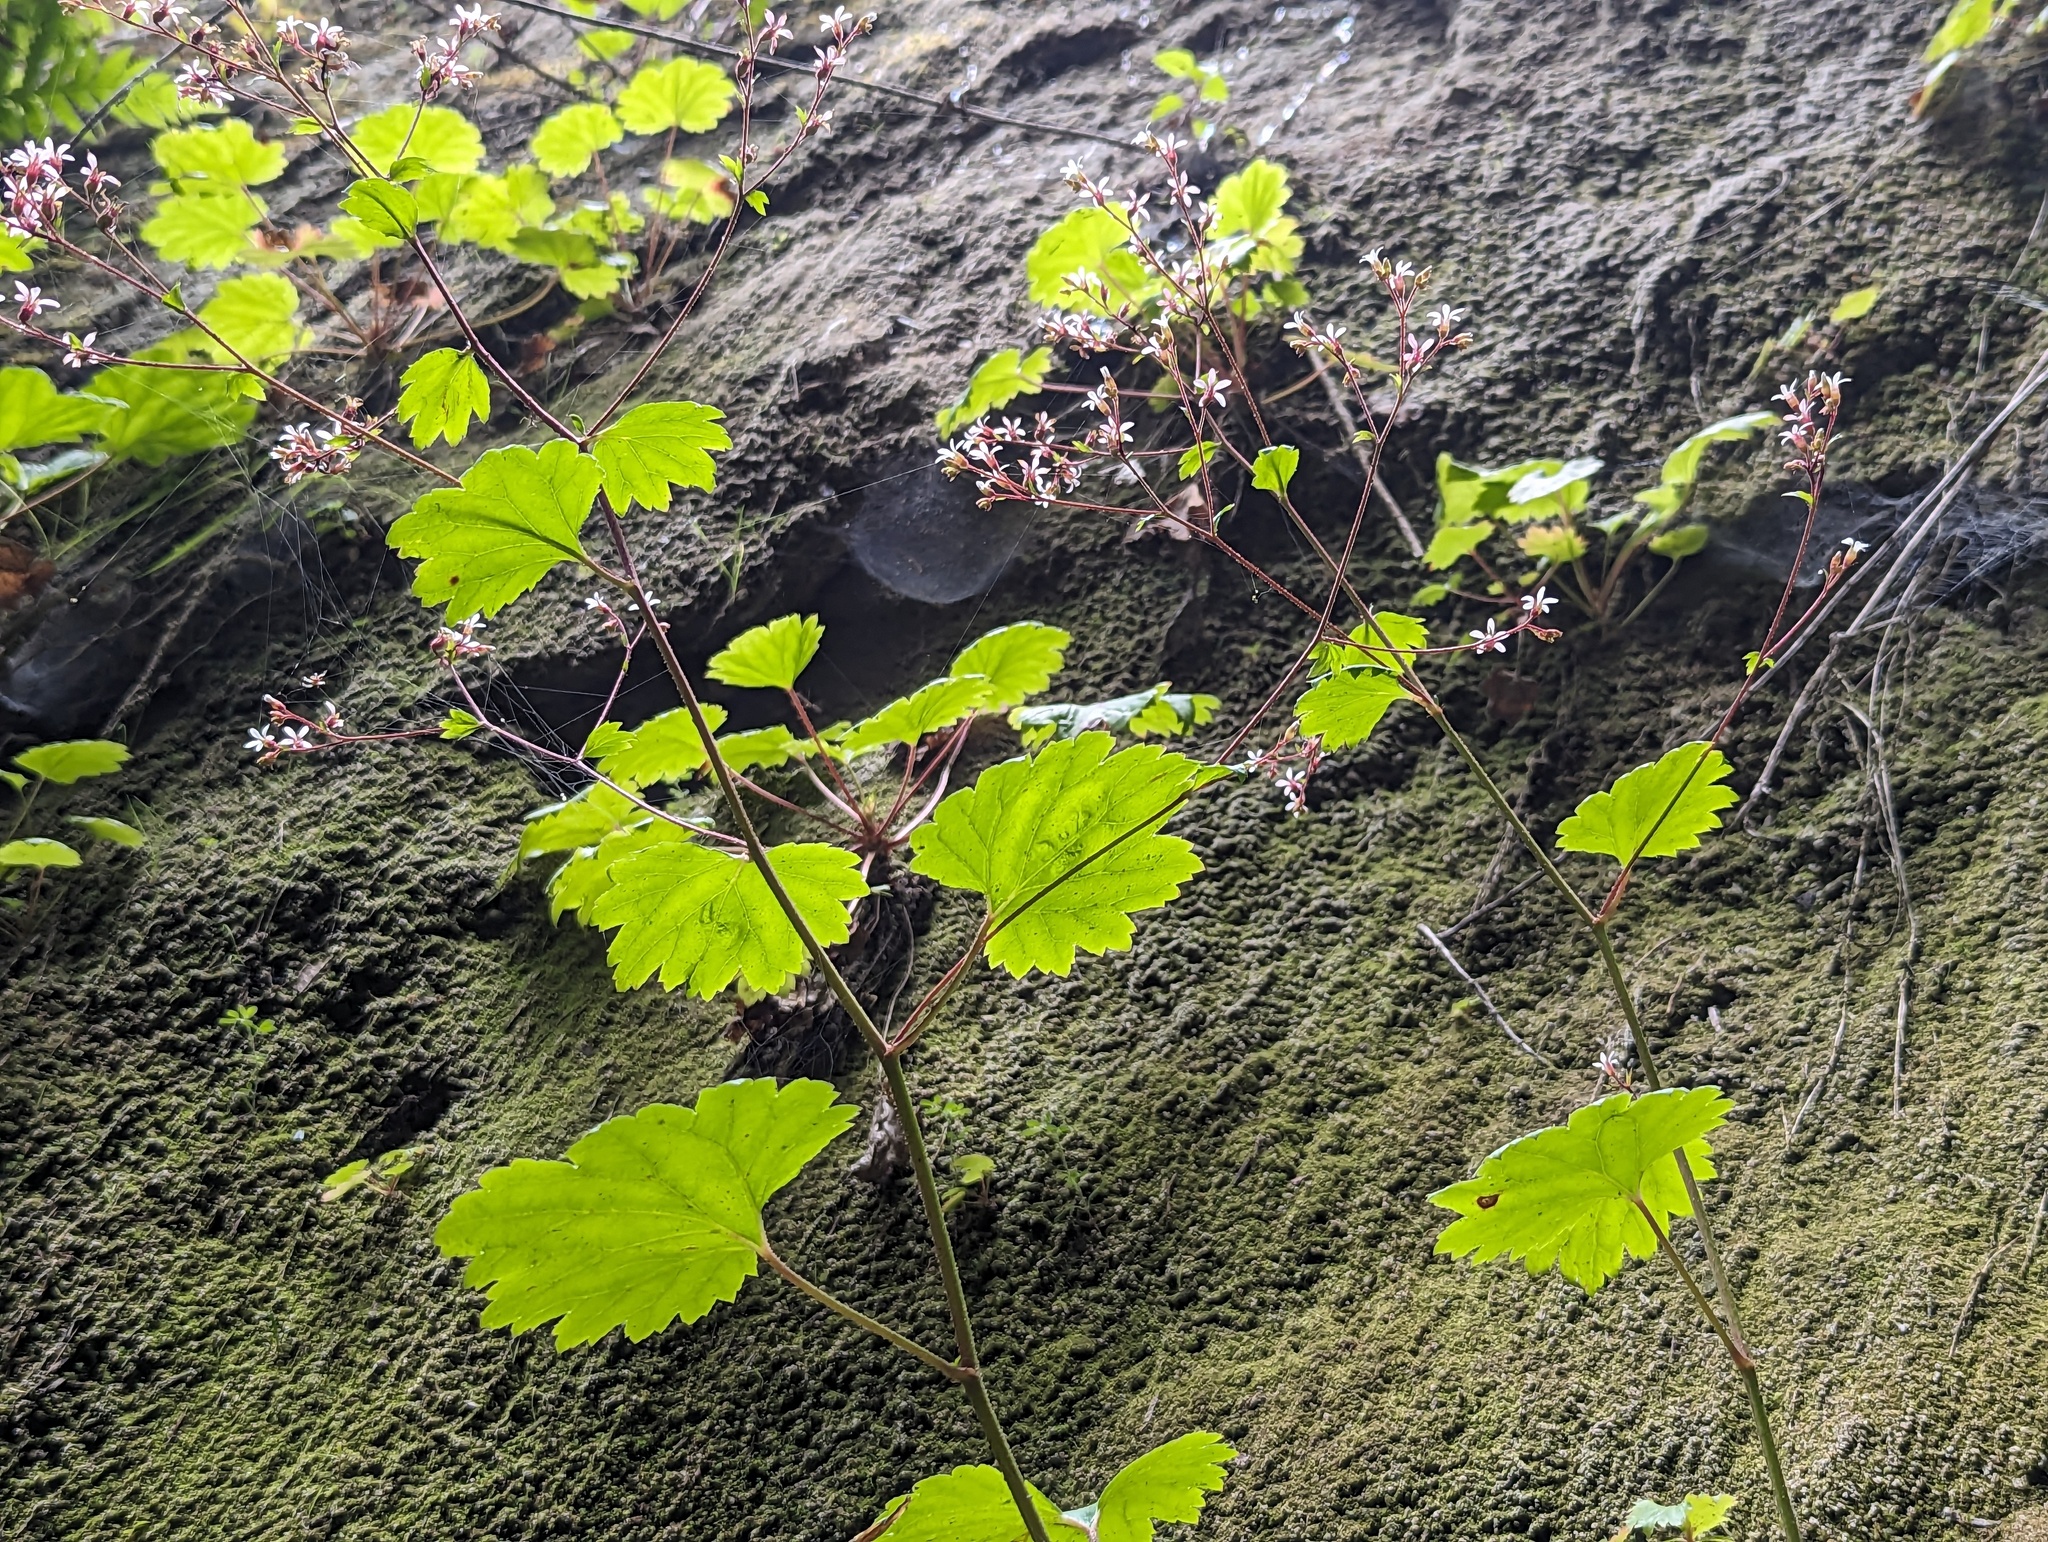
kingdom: Plantae
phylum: Tracheophyta
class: Magnoliopsida
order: Saxifragales
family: Saxifragaceae
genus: Boykinia
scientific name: Boykinia occidentalis
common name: Coast boykinia
